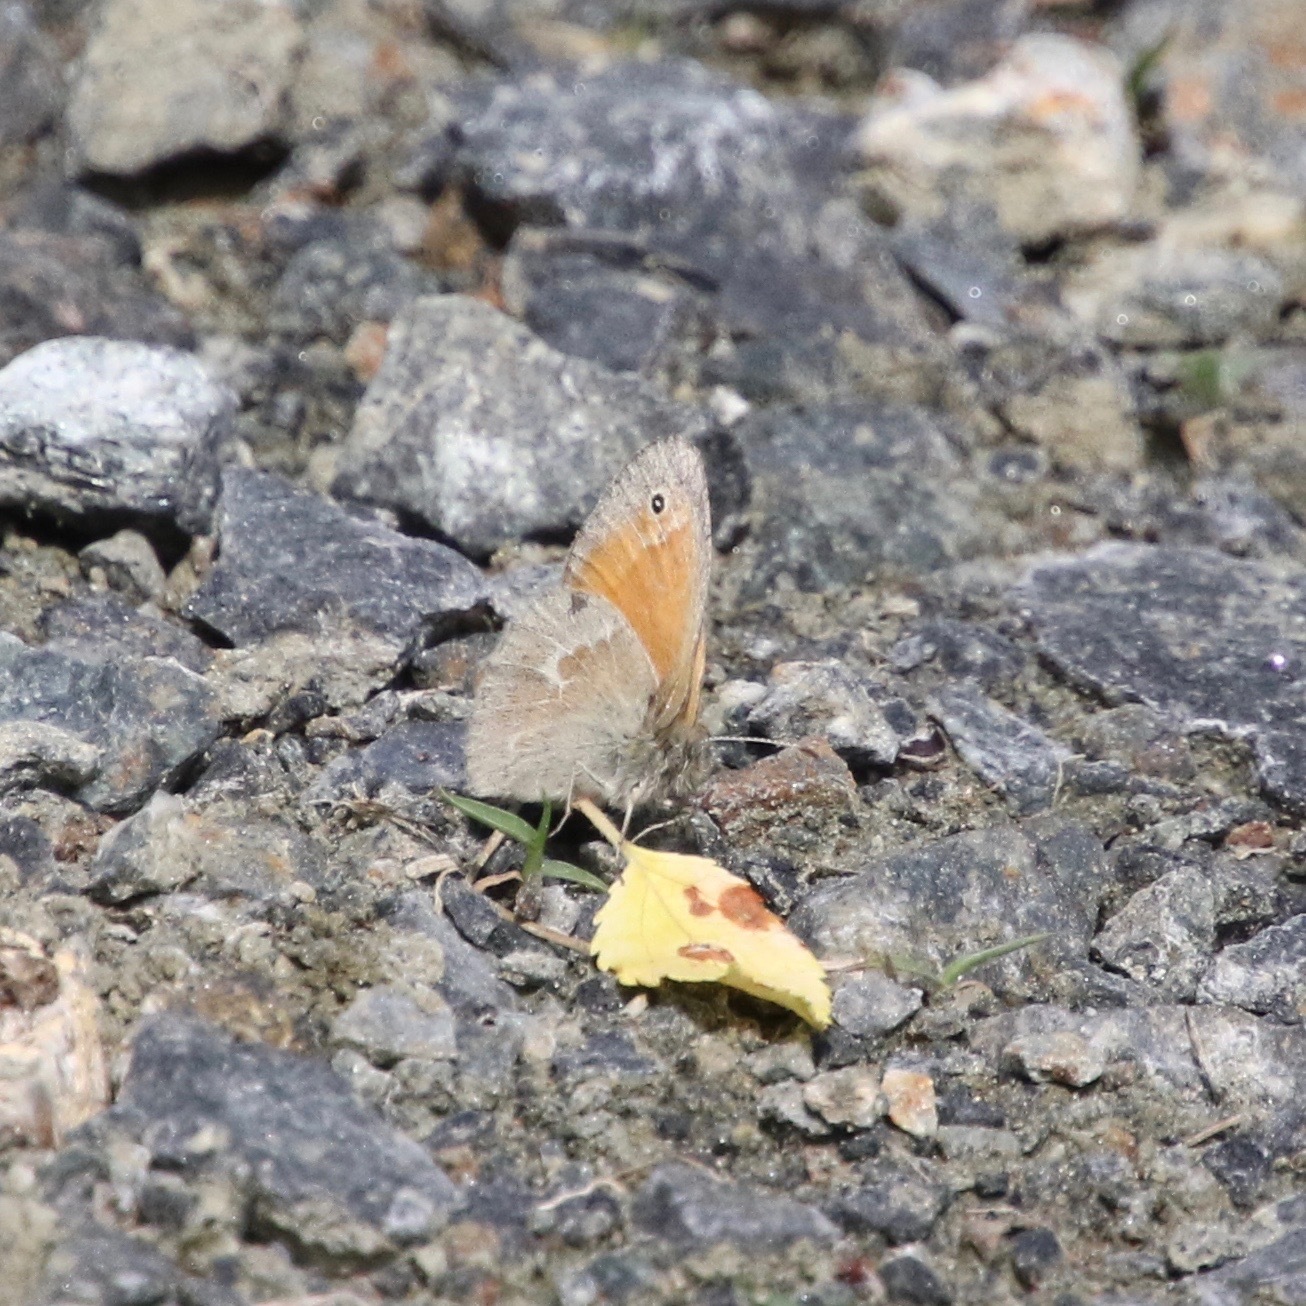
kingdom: Animalia
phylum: Arthropoda
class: Insecta
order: Lepidoptera
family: Nymphalidae
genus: Coenonympha
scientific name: Coenonympha california
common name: Common ringlet
